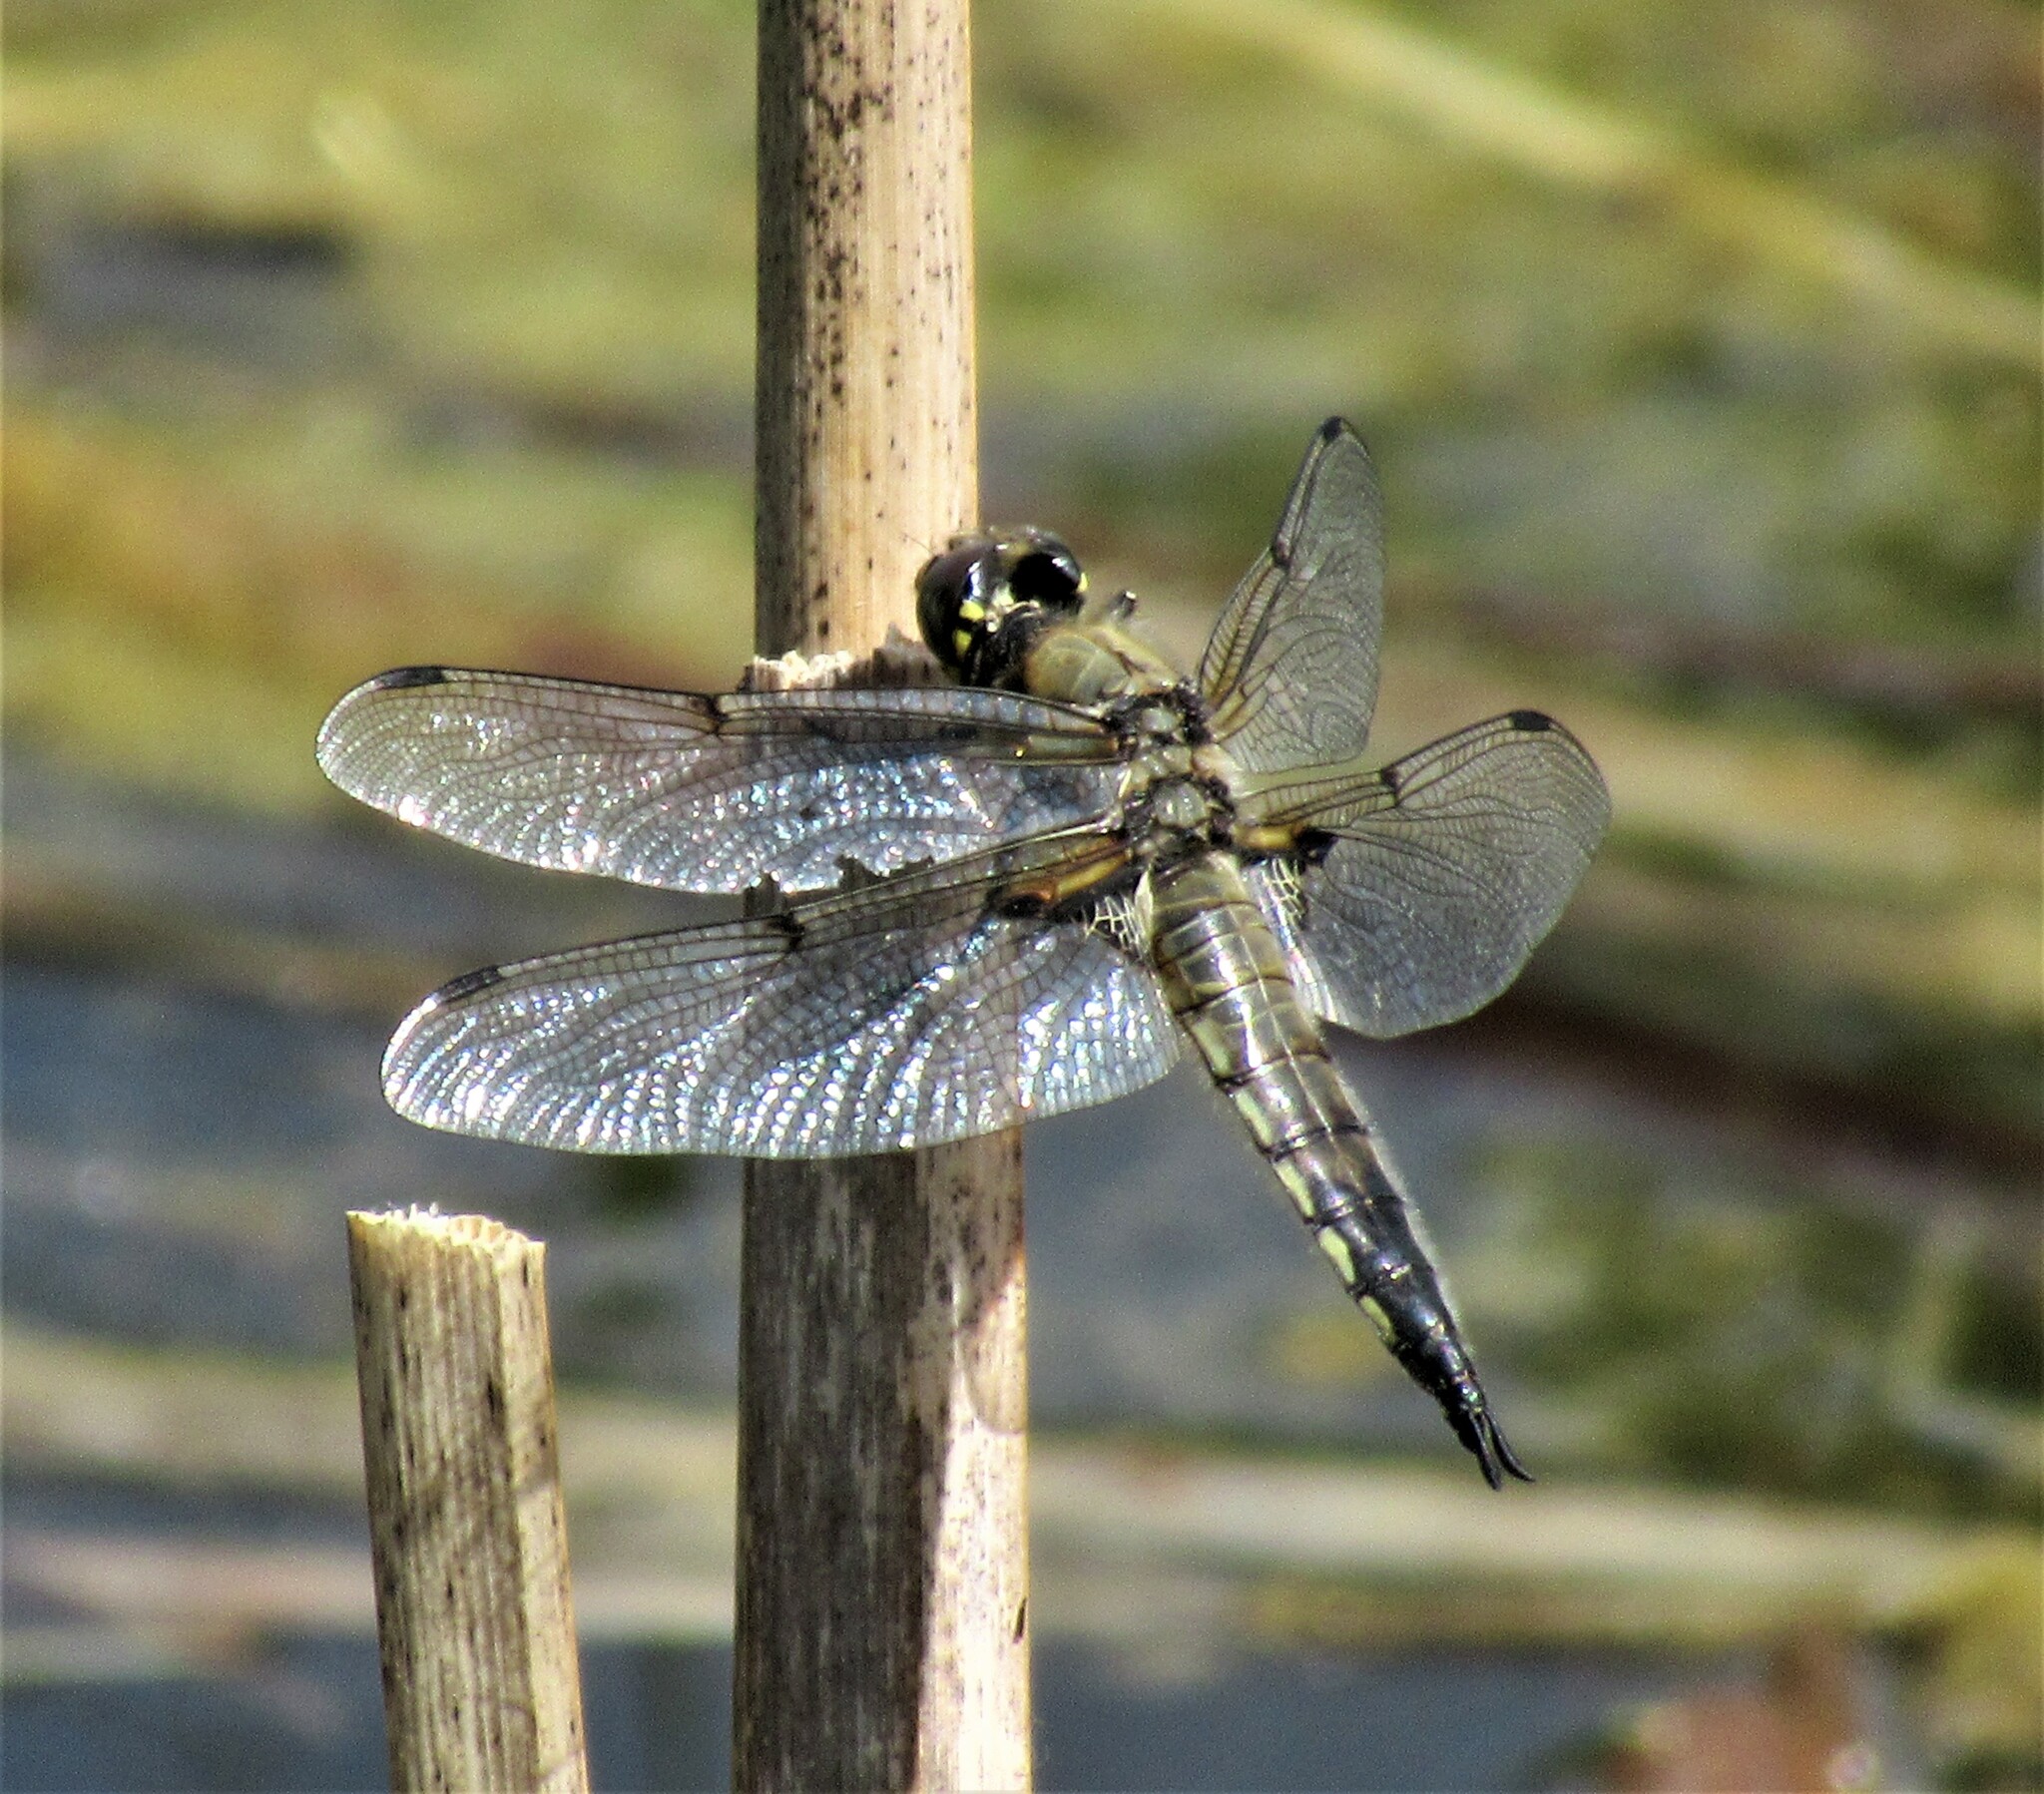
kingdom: Animalia
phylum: Arthropoda
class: Insecta
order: Odonata
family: Libellulidae
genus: Libellula
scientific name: Libellula quadrimaculata
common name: Four-spotted chaser
